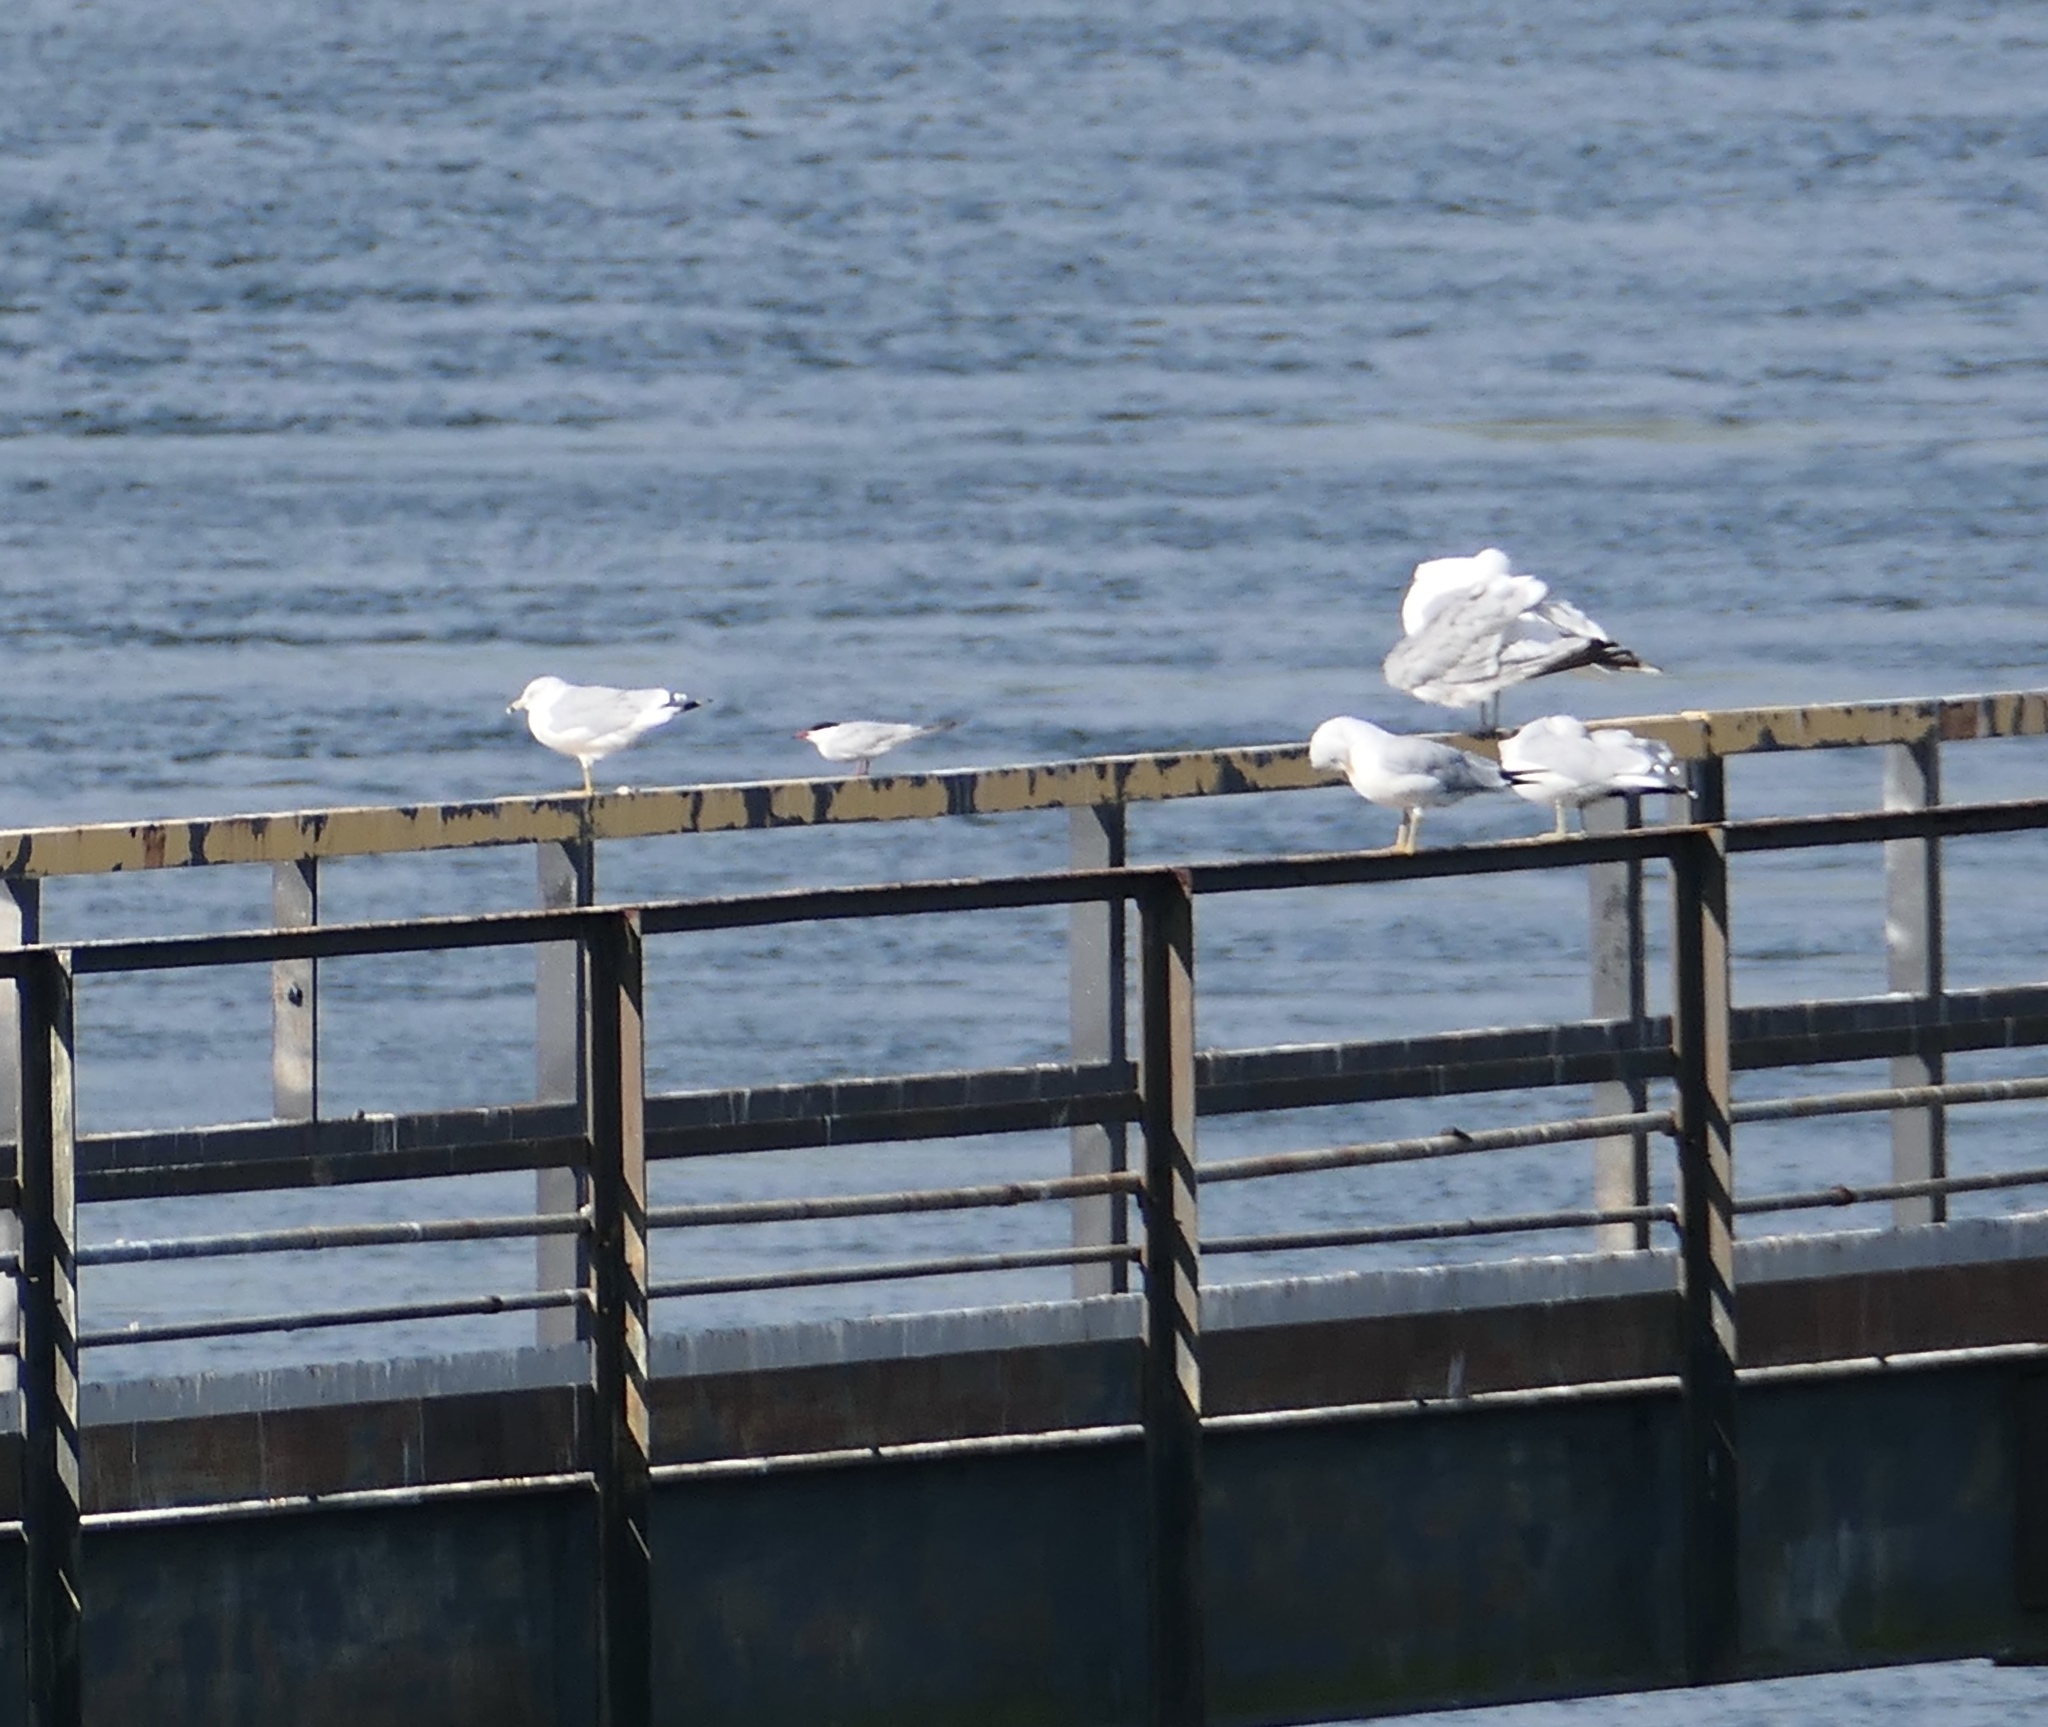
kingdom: Animalia
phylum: Chordata
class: Aves
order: Charadriiformes
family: Laridae
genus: Sterna
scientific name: Sterna hirundo
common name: Common tern
